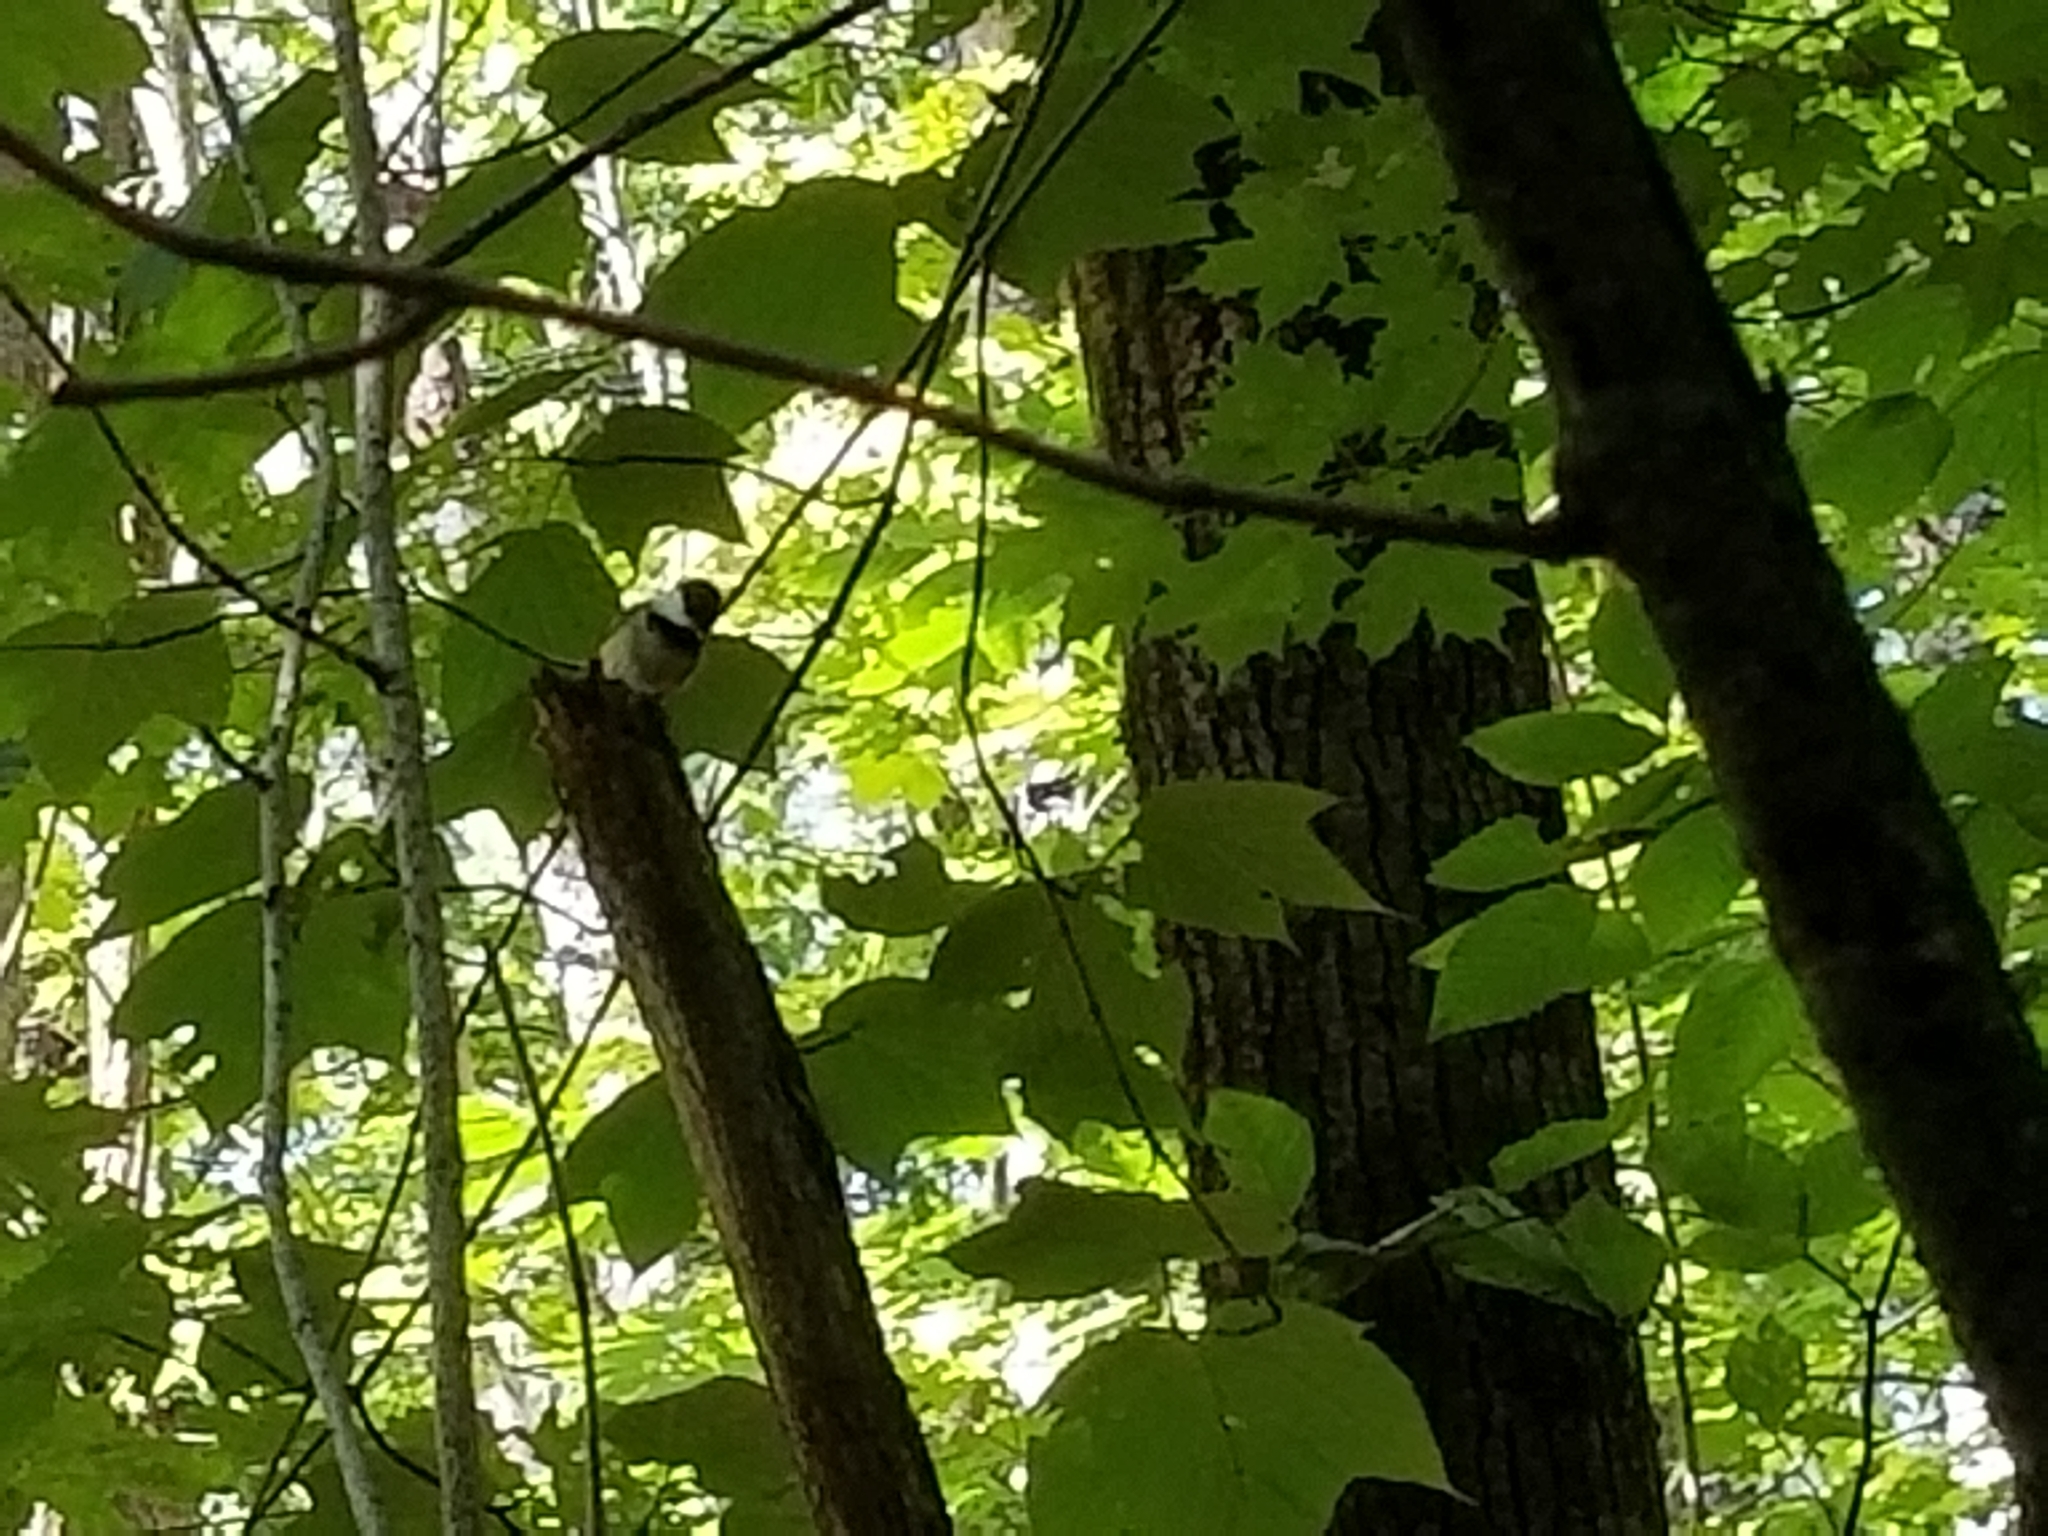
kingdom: Animalia
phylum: Chordata
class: Aves
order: Passeriformes
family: Paridae
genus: Poecile
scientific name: Poecile atricapillus
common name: Black-capped chickadee
